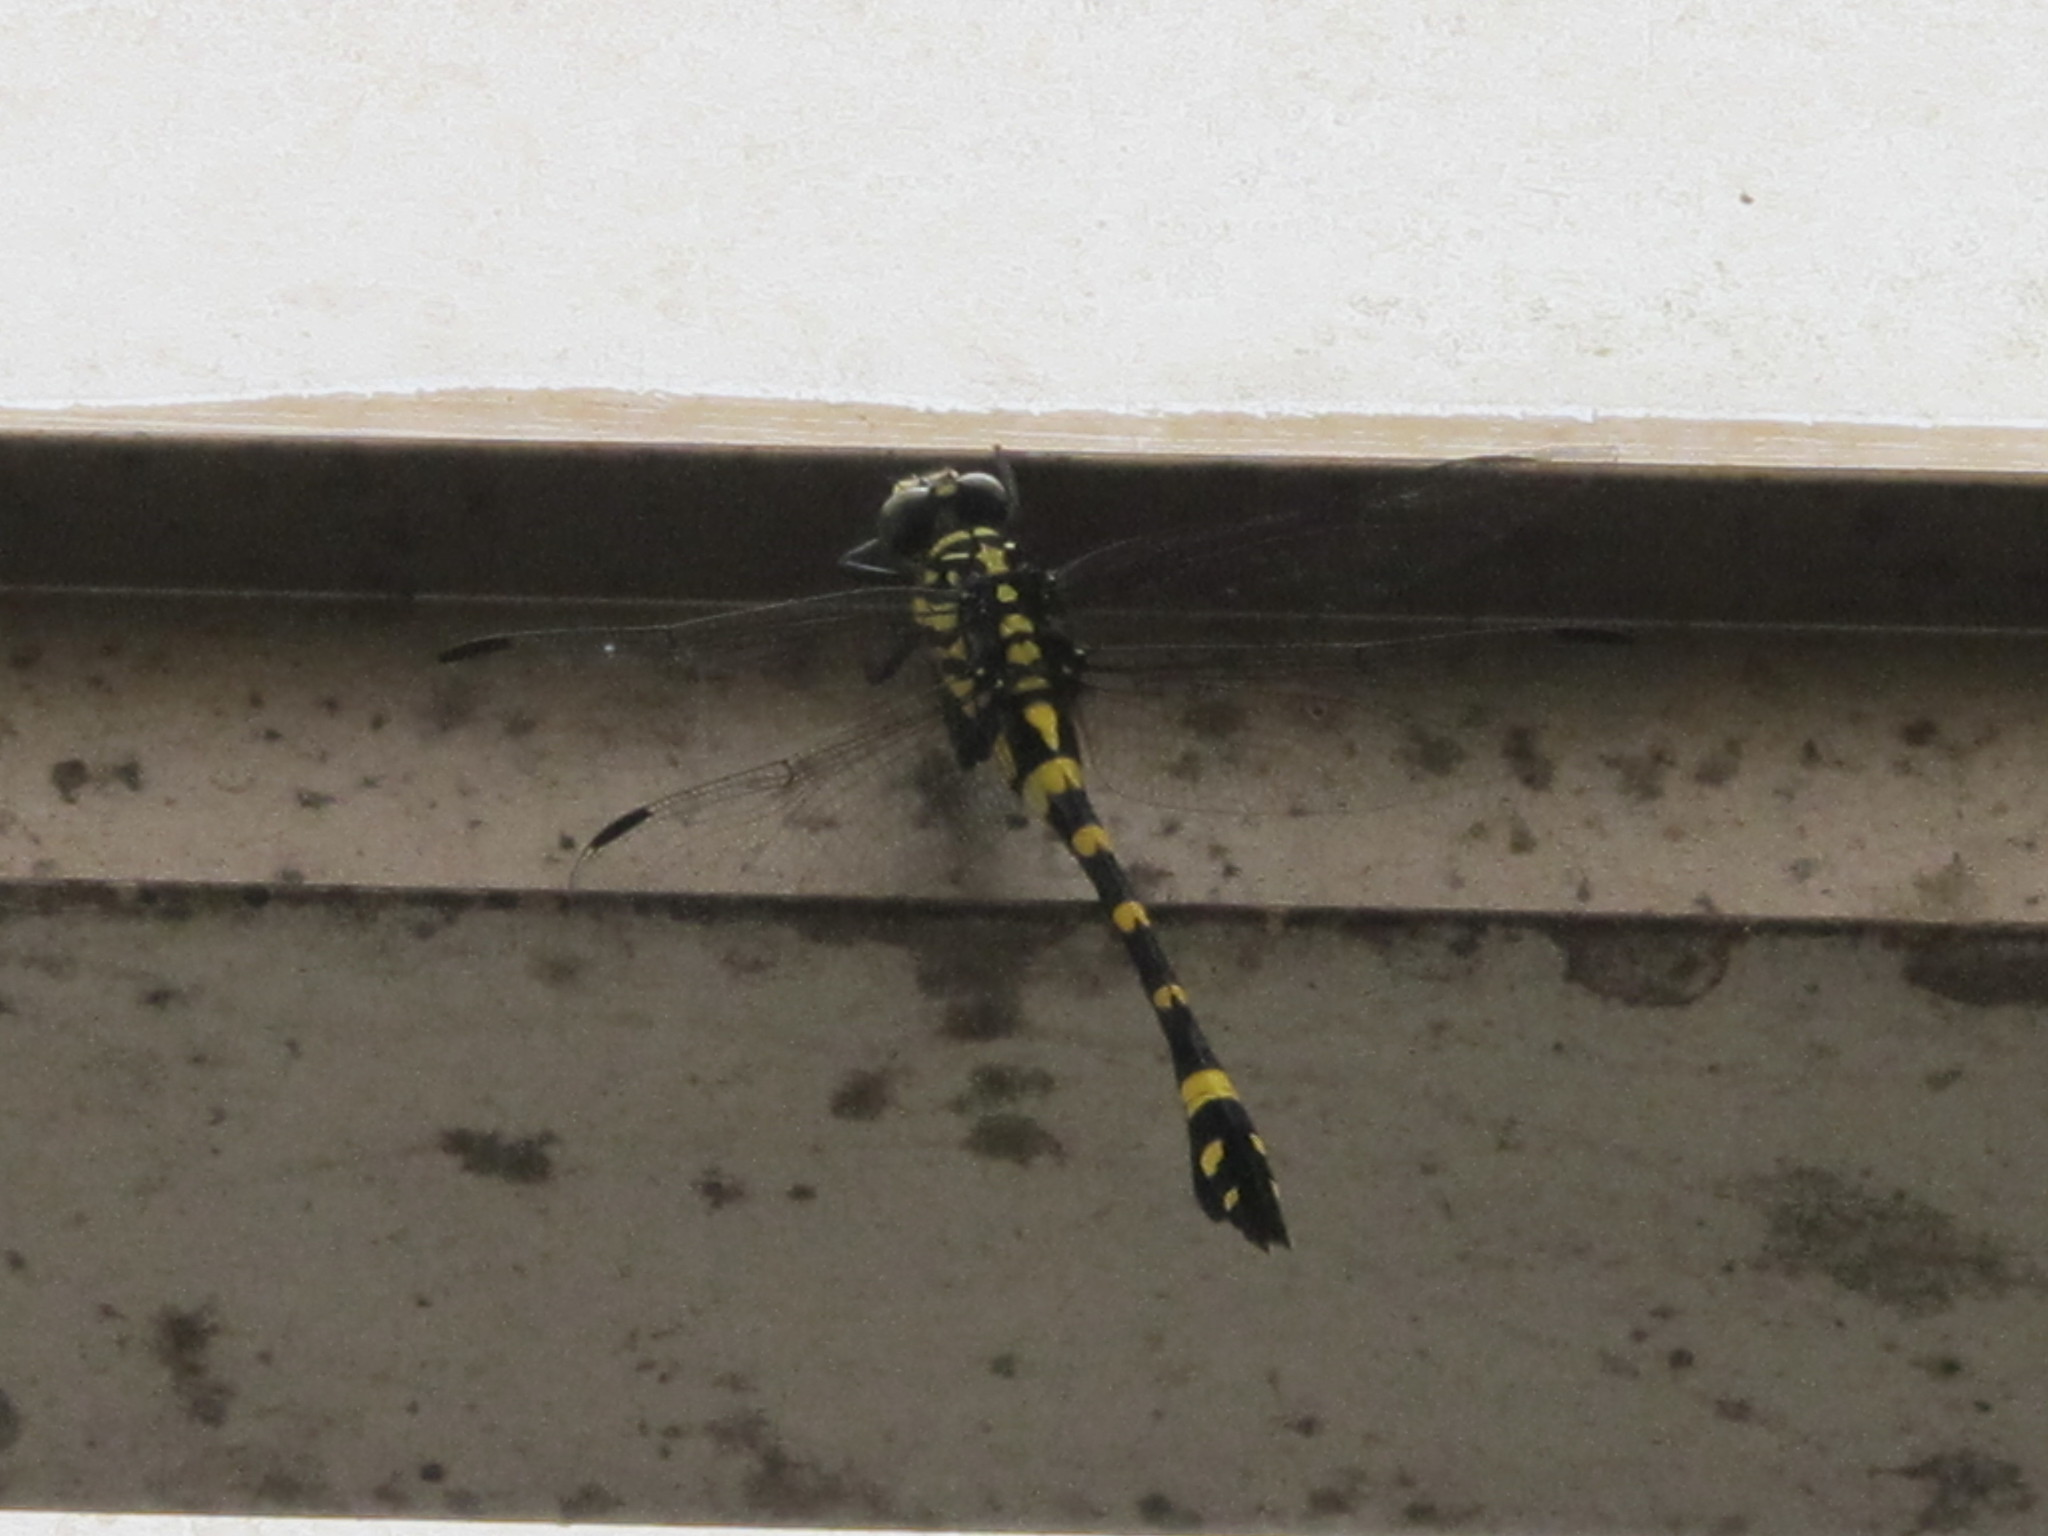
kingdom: Animalia
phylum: Arthropoda
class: Insecta
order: Odonata
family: Gomphidae
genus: Ictinogomphus
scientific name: Ictinogomphus rapax
